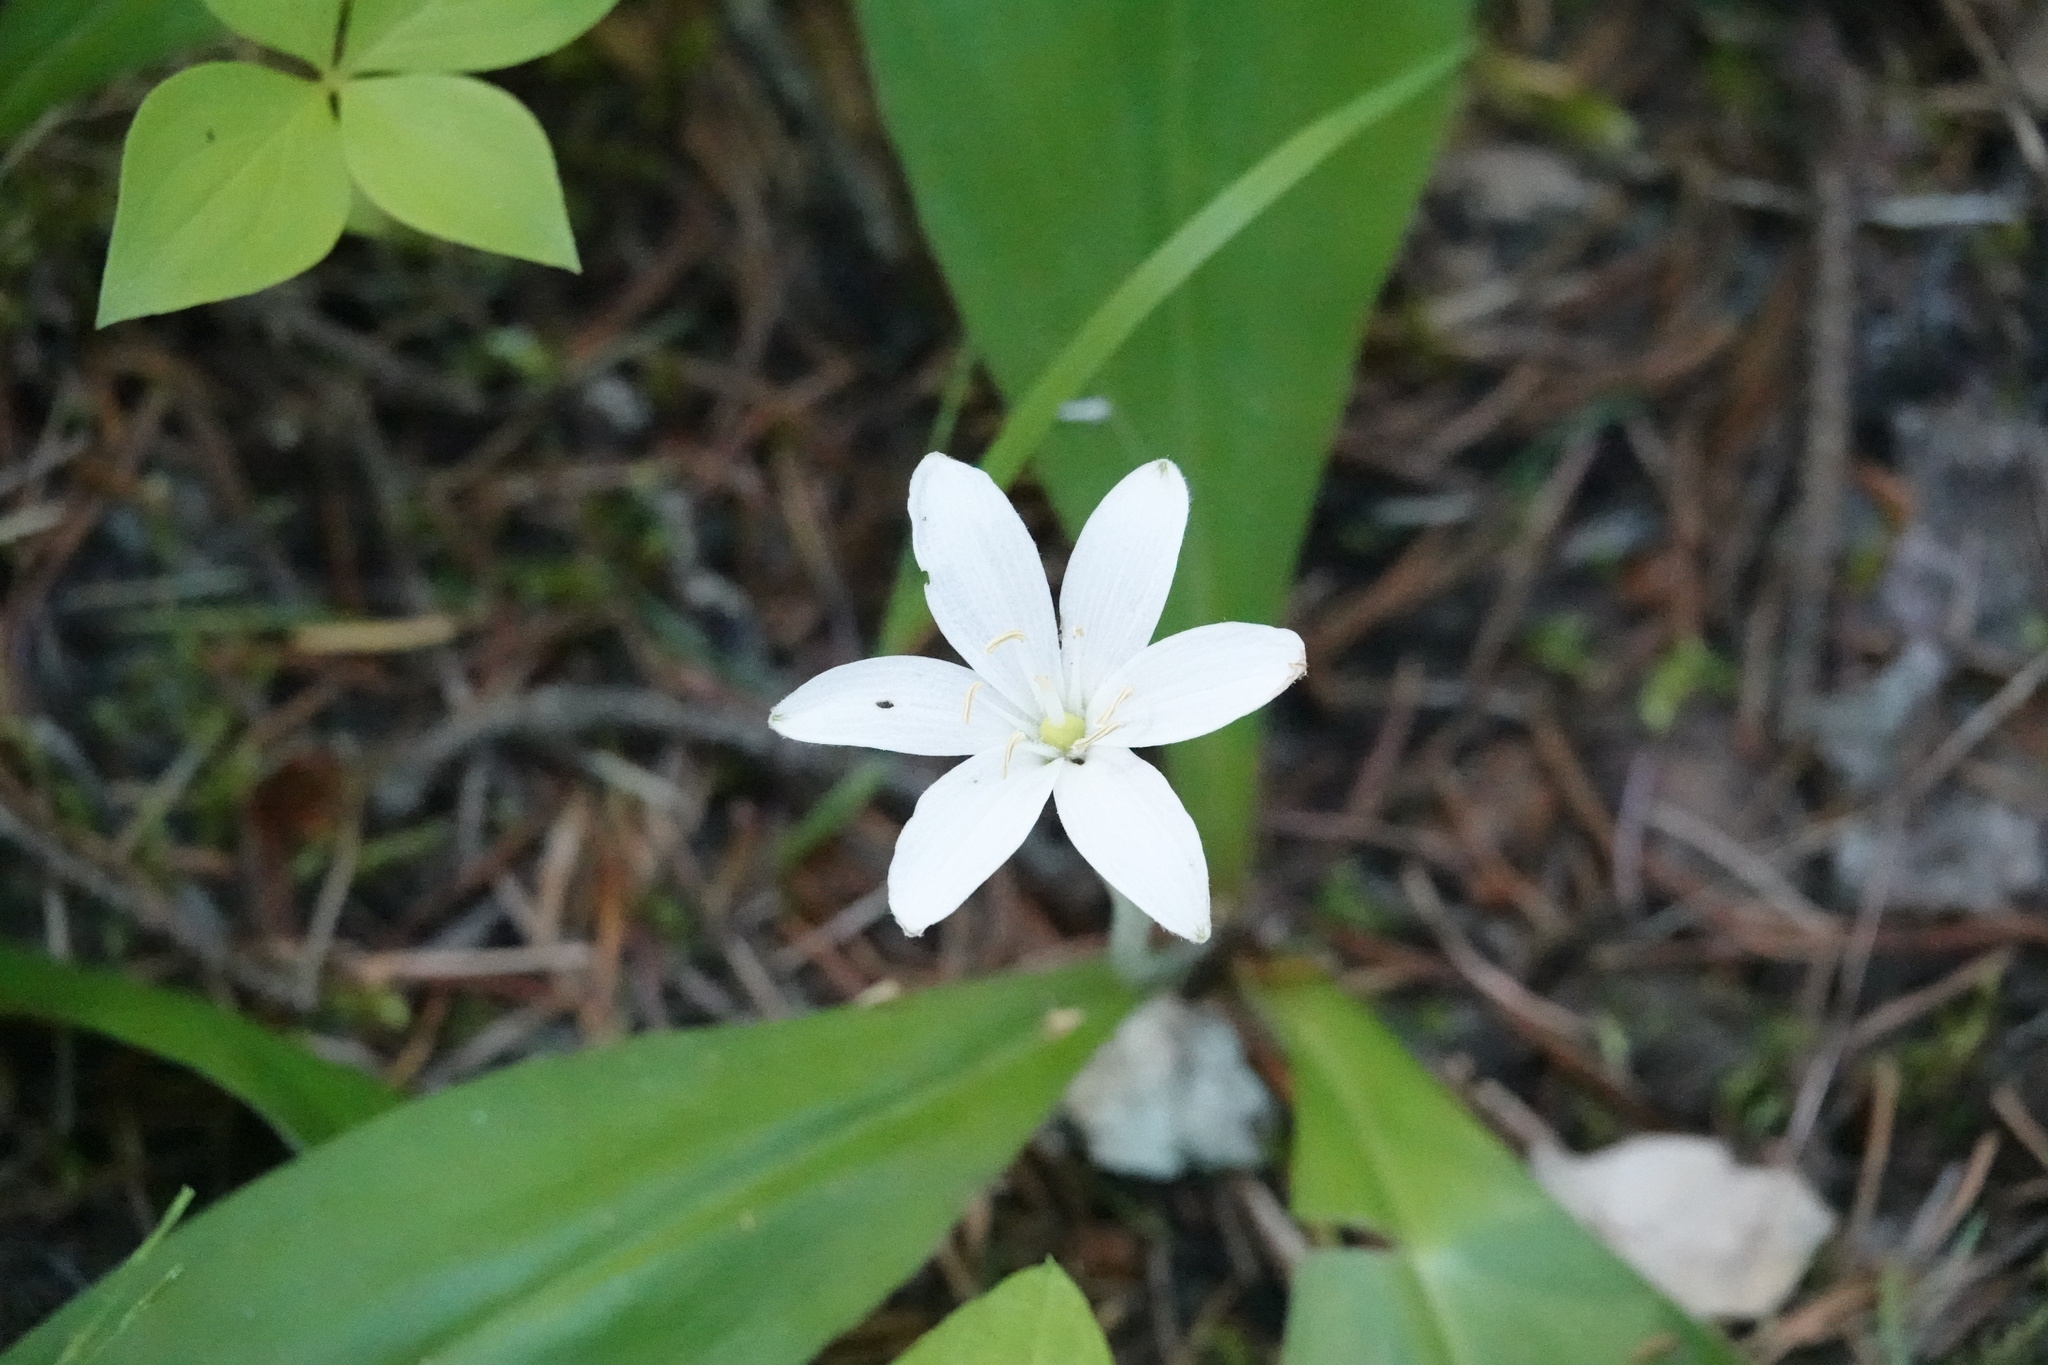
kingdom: Plantae
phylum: Tracheophyta
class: Liliopsida
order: Liliales
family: Liliaceae
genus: Clintonia
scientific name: Clintonia uniflora
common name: Queen's cup
